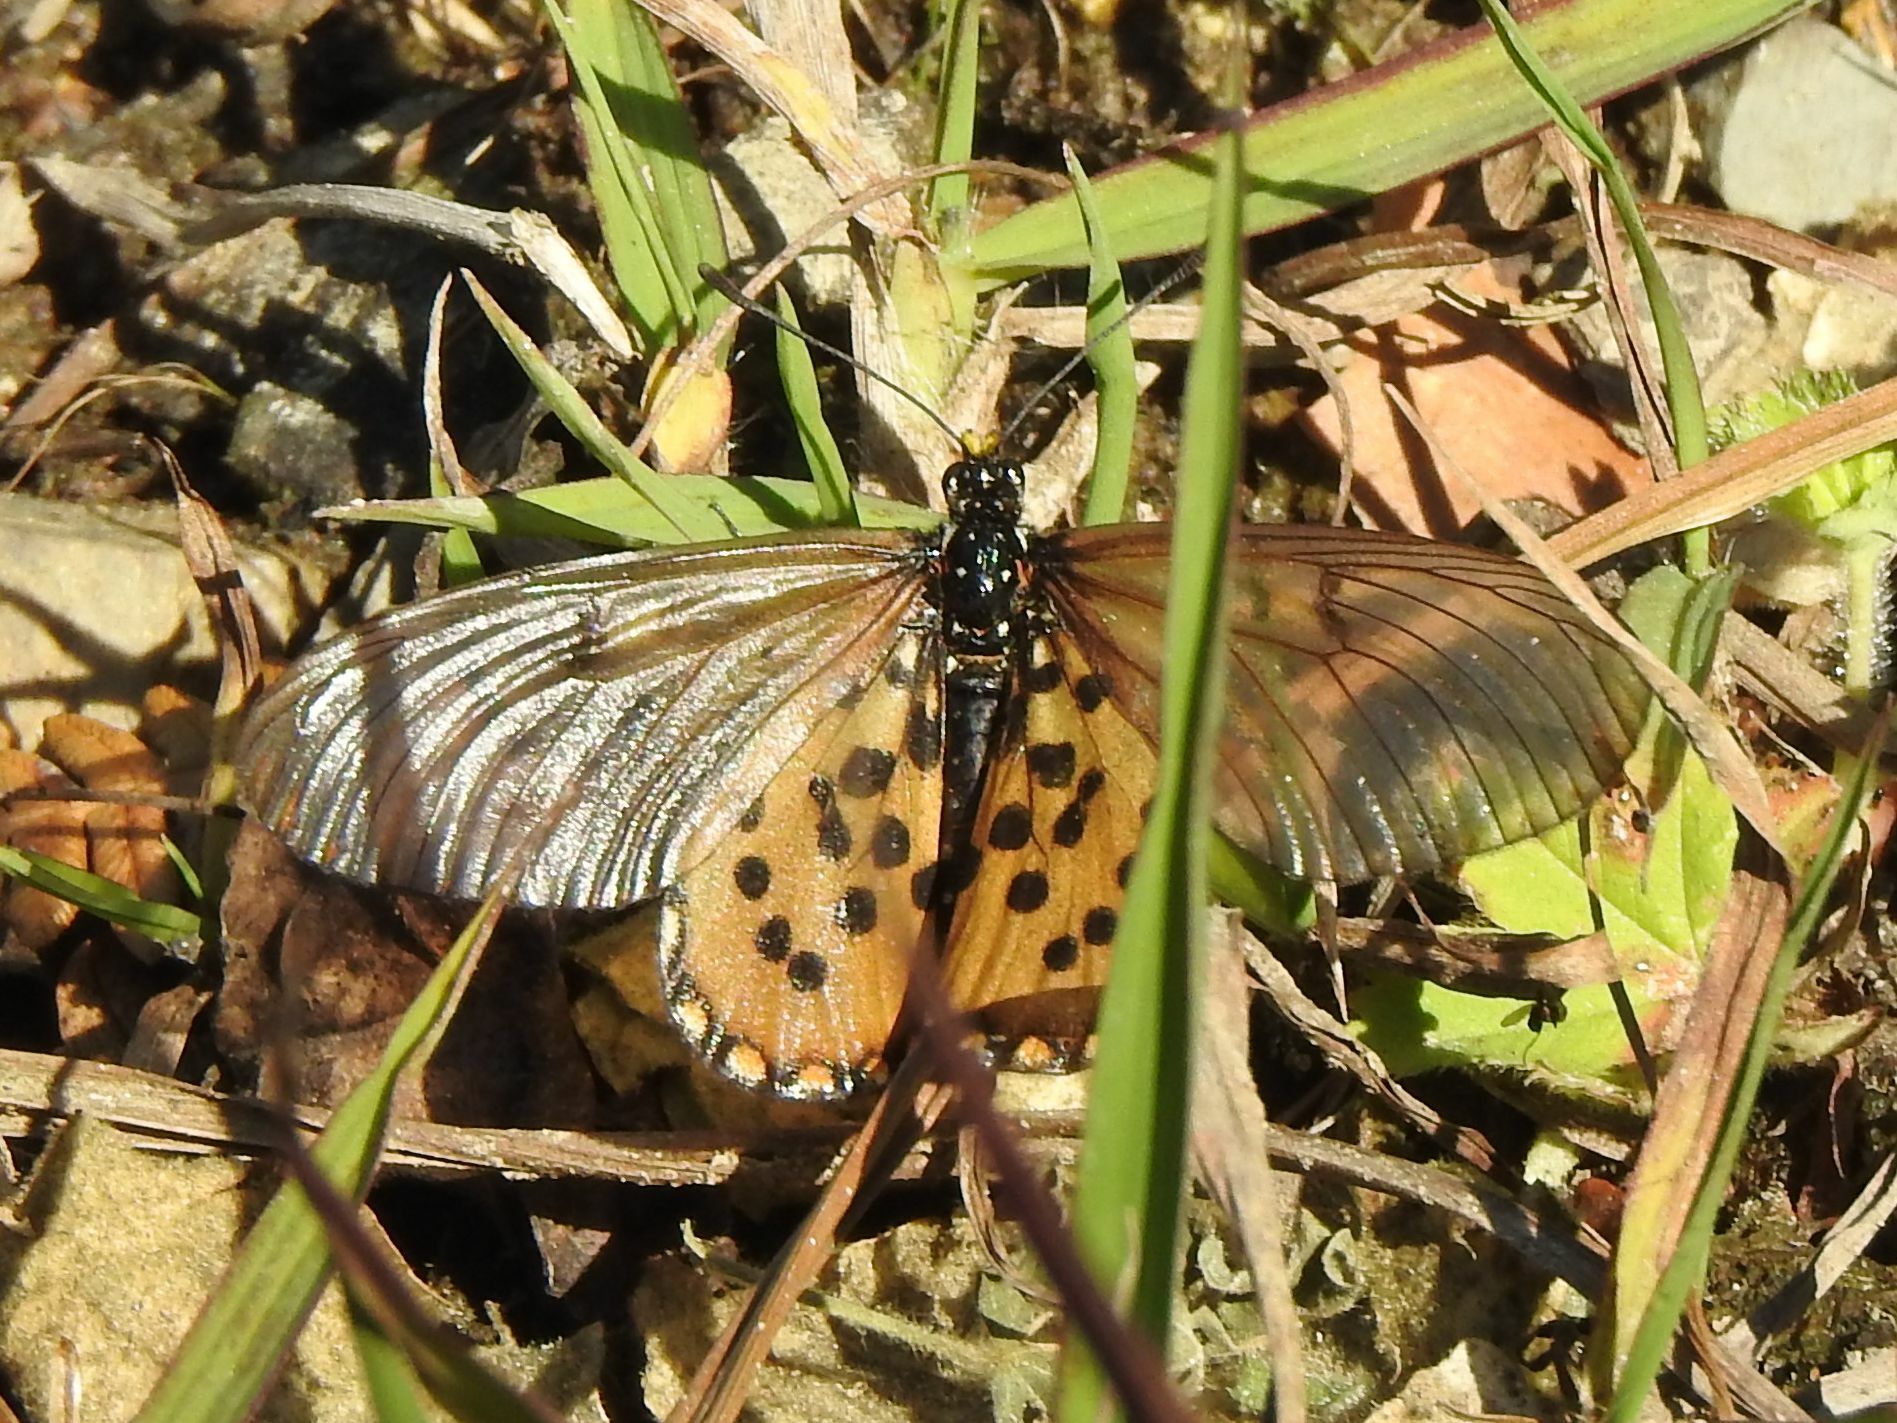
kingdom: Animalia
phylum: Arthropoda
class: Insecta
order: Lepidoptera
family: Nymphalidae
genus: Acraea
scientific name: Acraea horta
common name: Garden acraea
